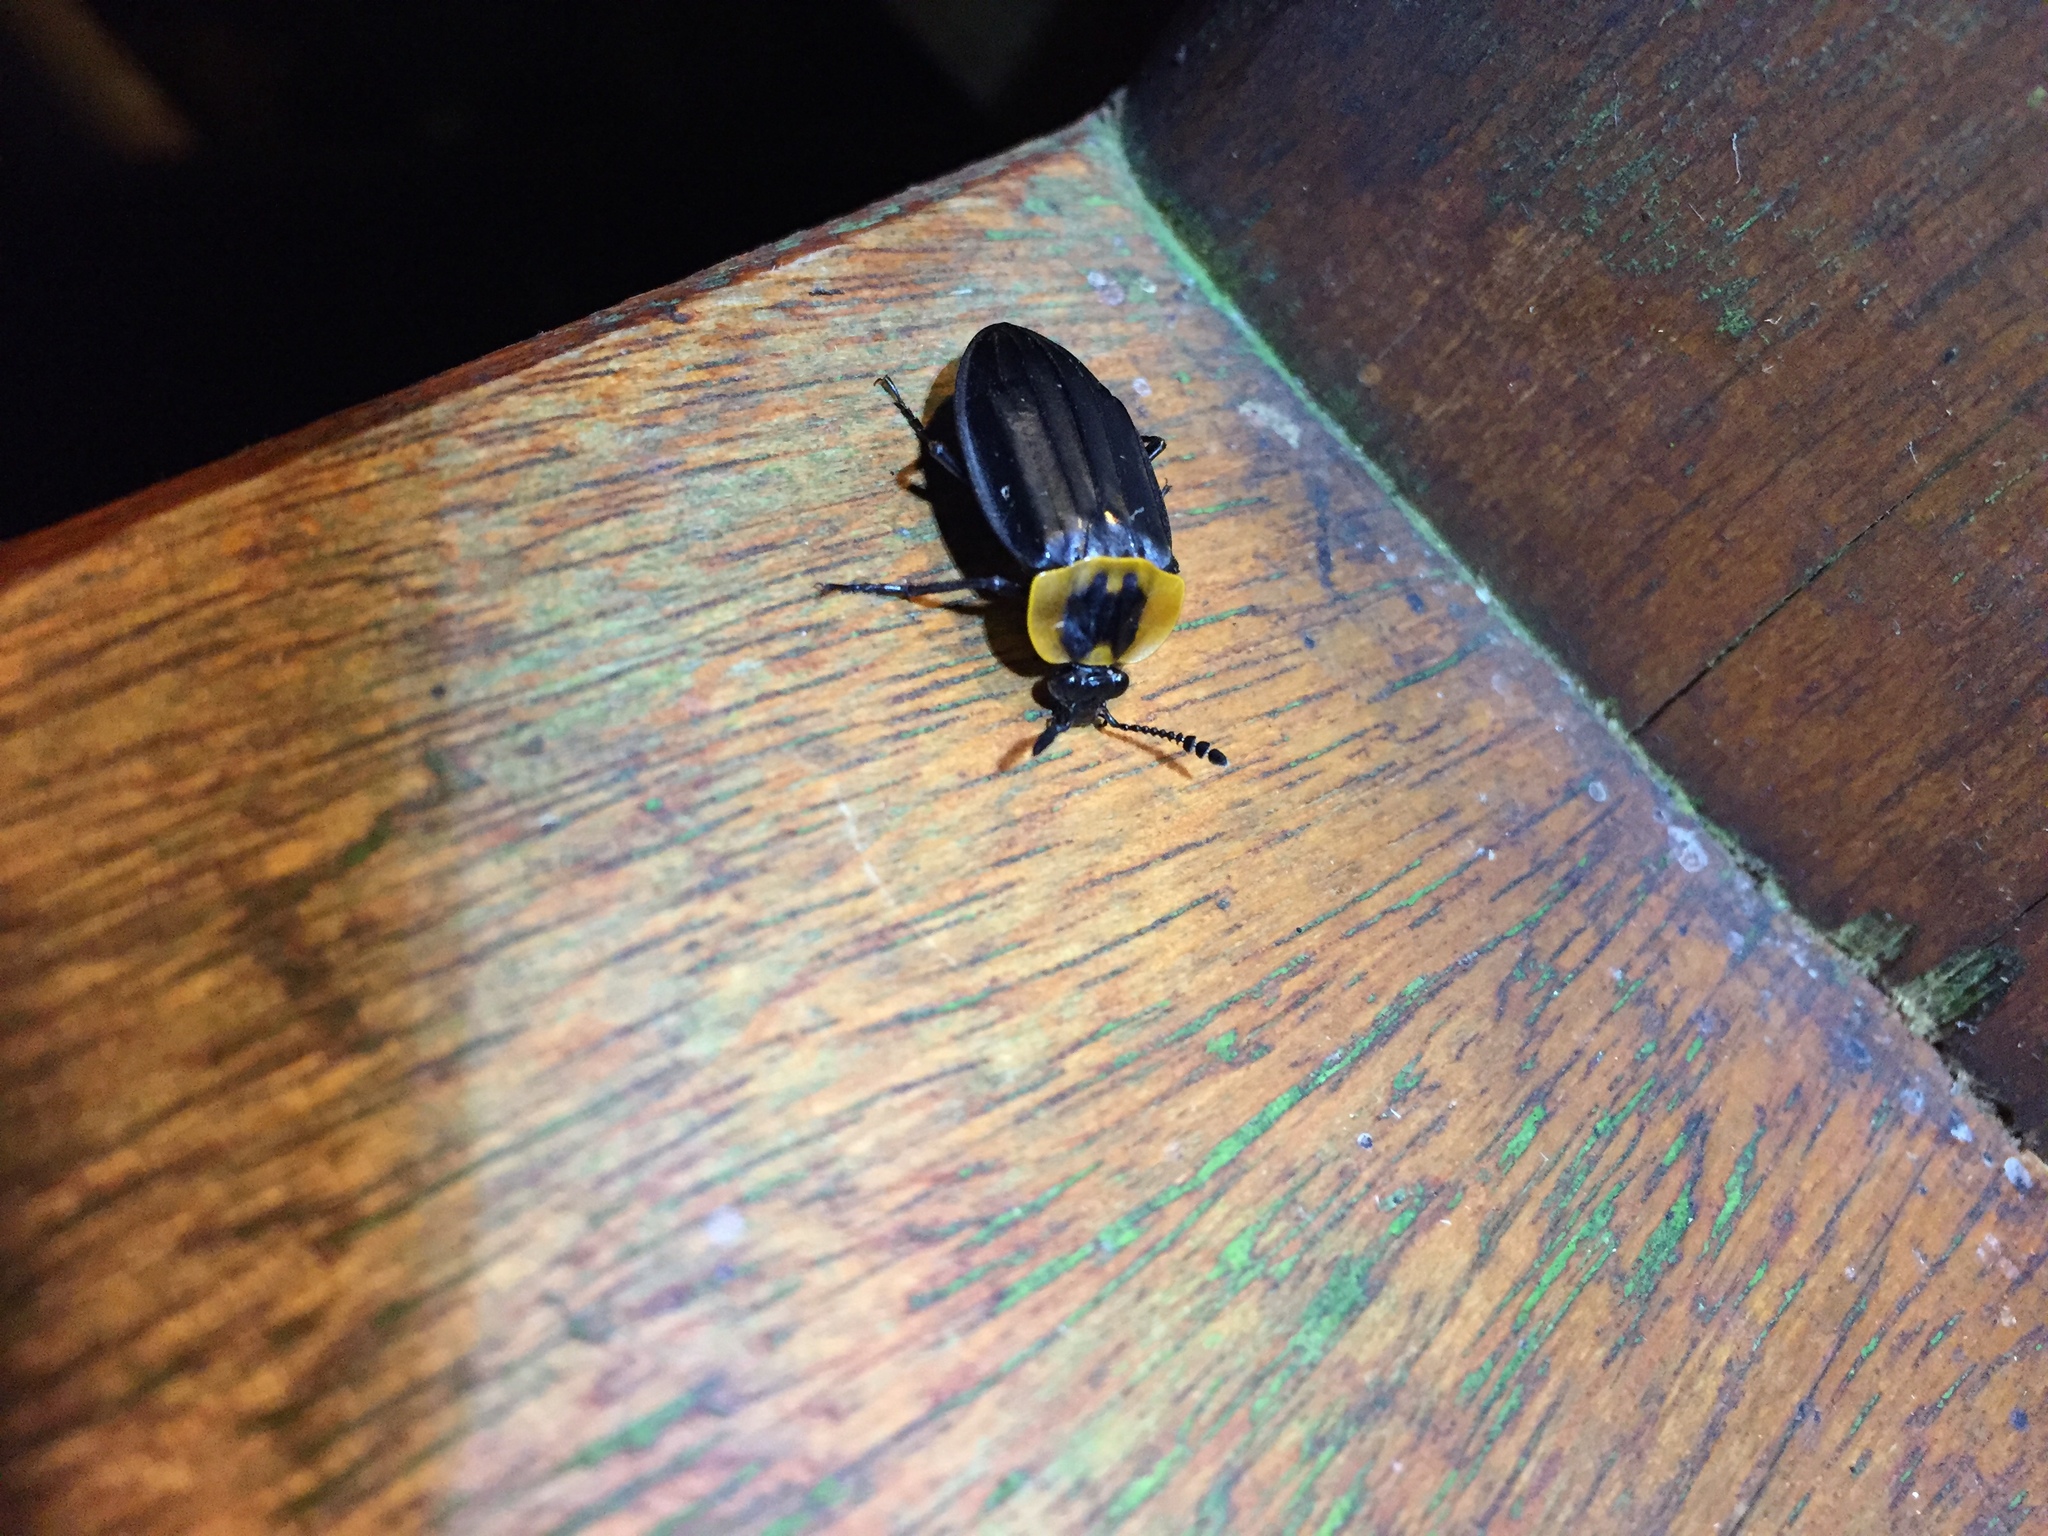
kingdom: Animalia
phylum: Arthropoda
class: Insecta
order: Coleoptera
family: Staphylinidae
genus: Oxelytrum
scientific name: Oxelytrum discicolle
